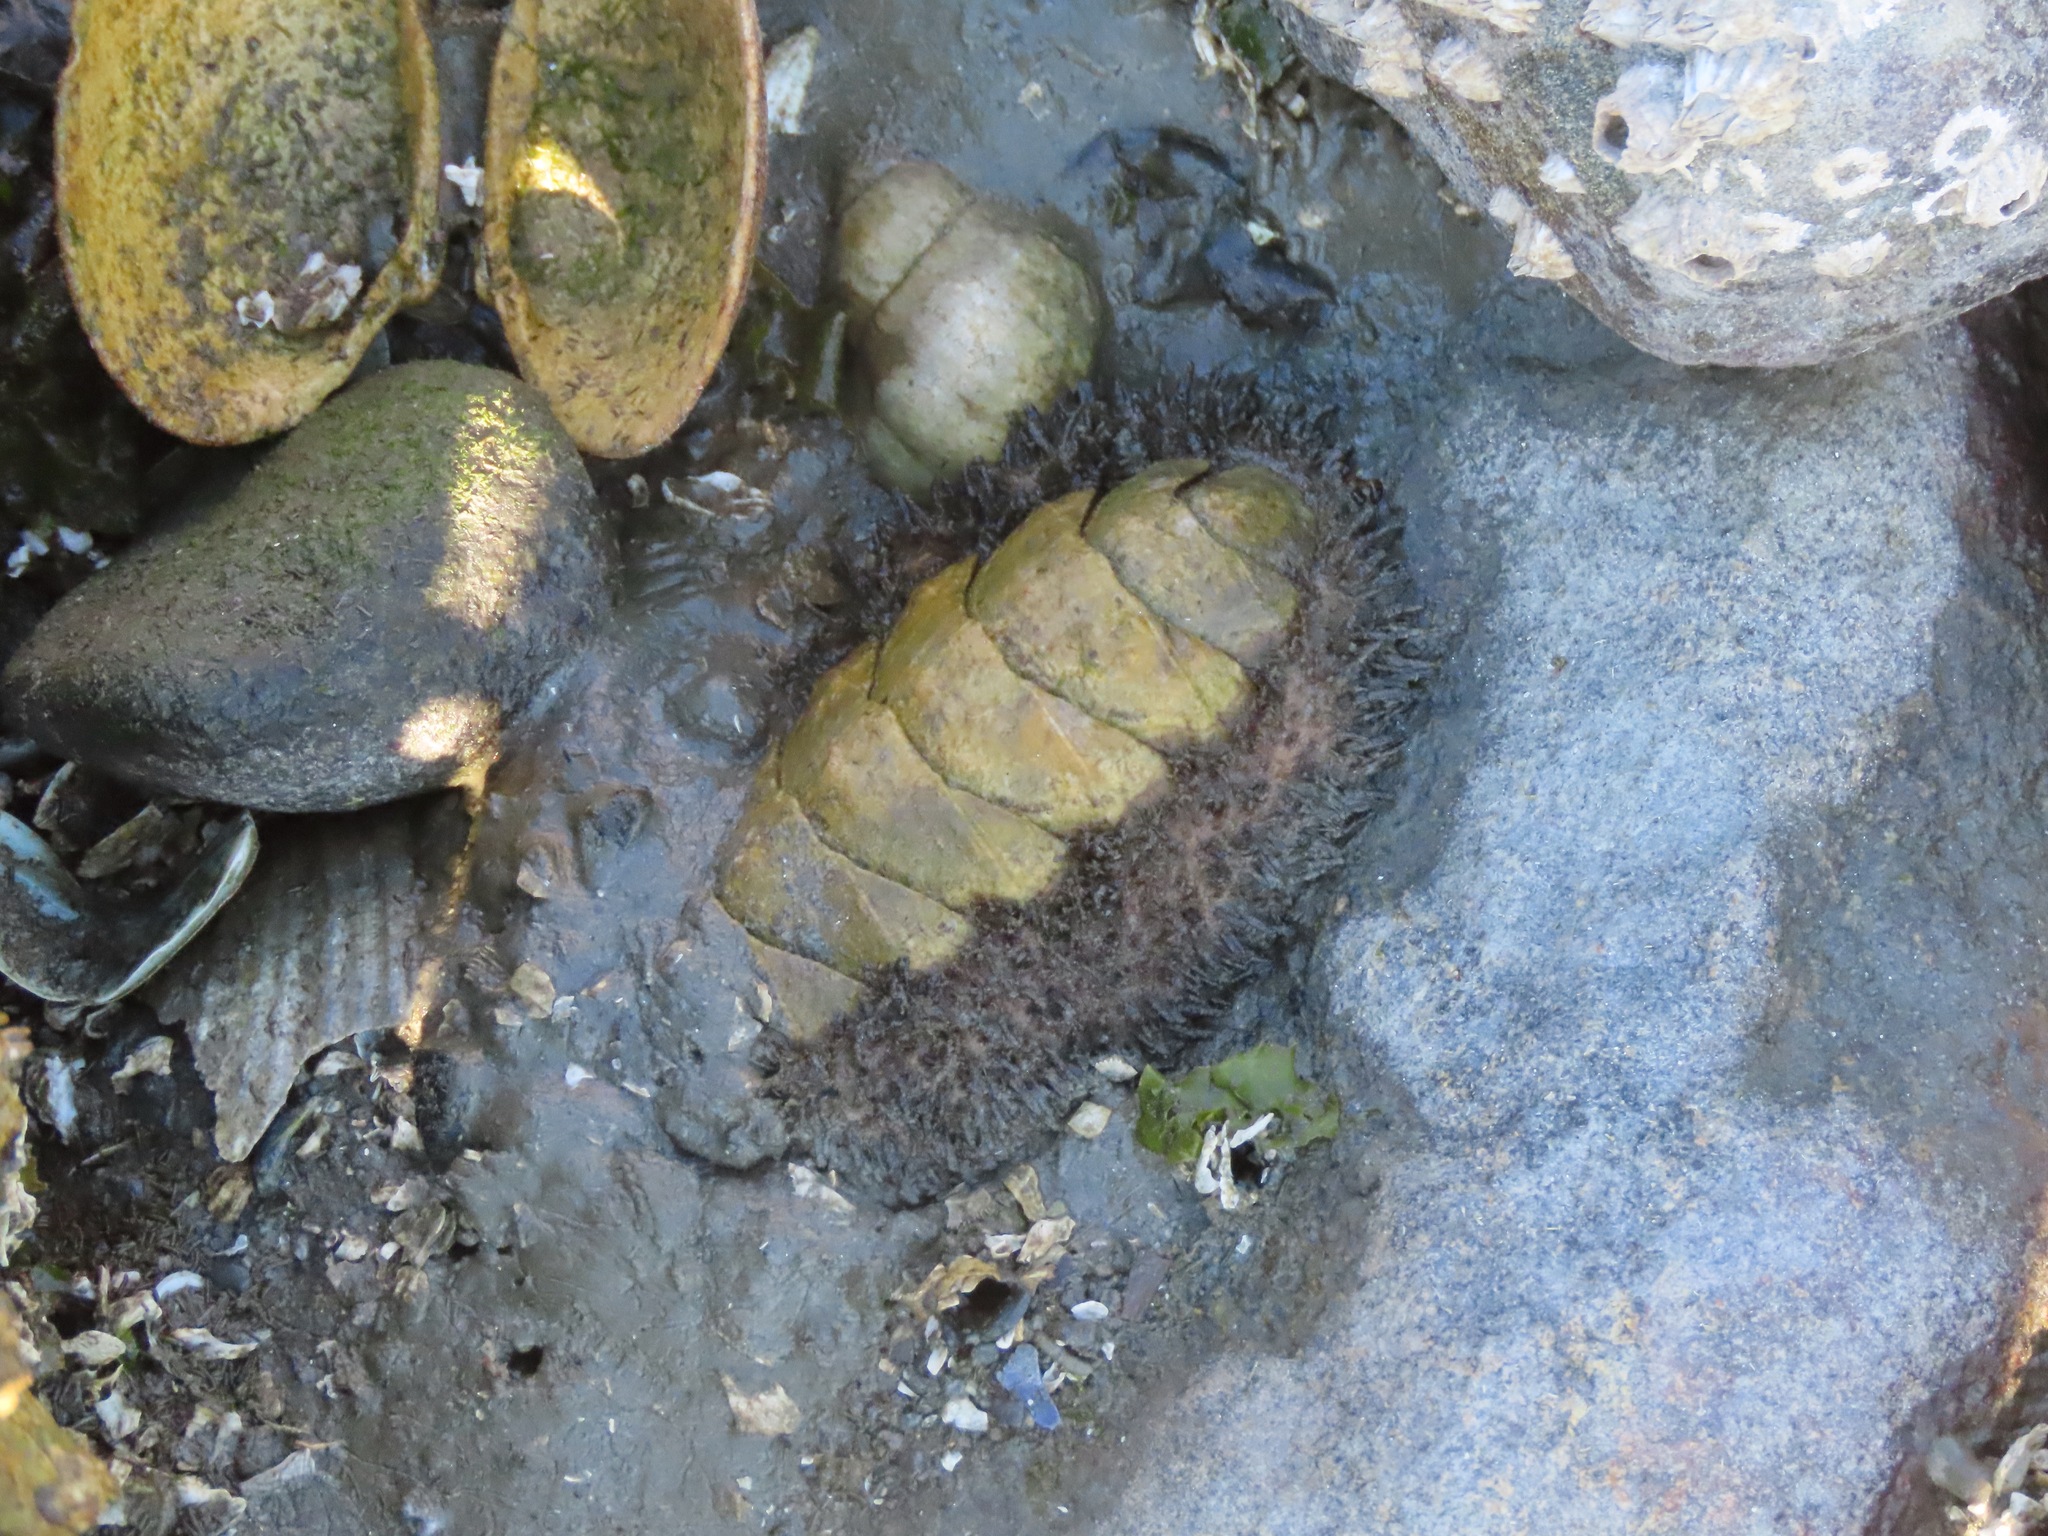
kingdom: Animalia
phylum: Mollusca
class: Polyplacophora
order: Chitonida
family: Mopaliidae
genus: Mopalia
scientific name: Mopalia muscosa
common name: Mossy chiton
